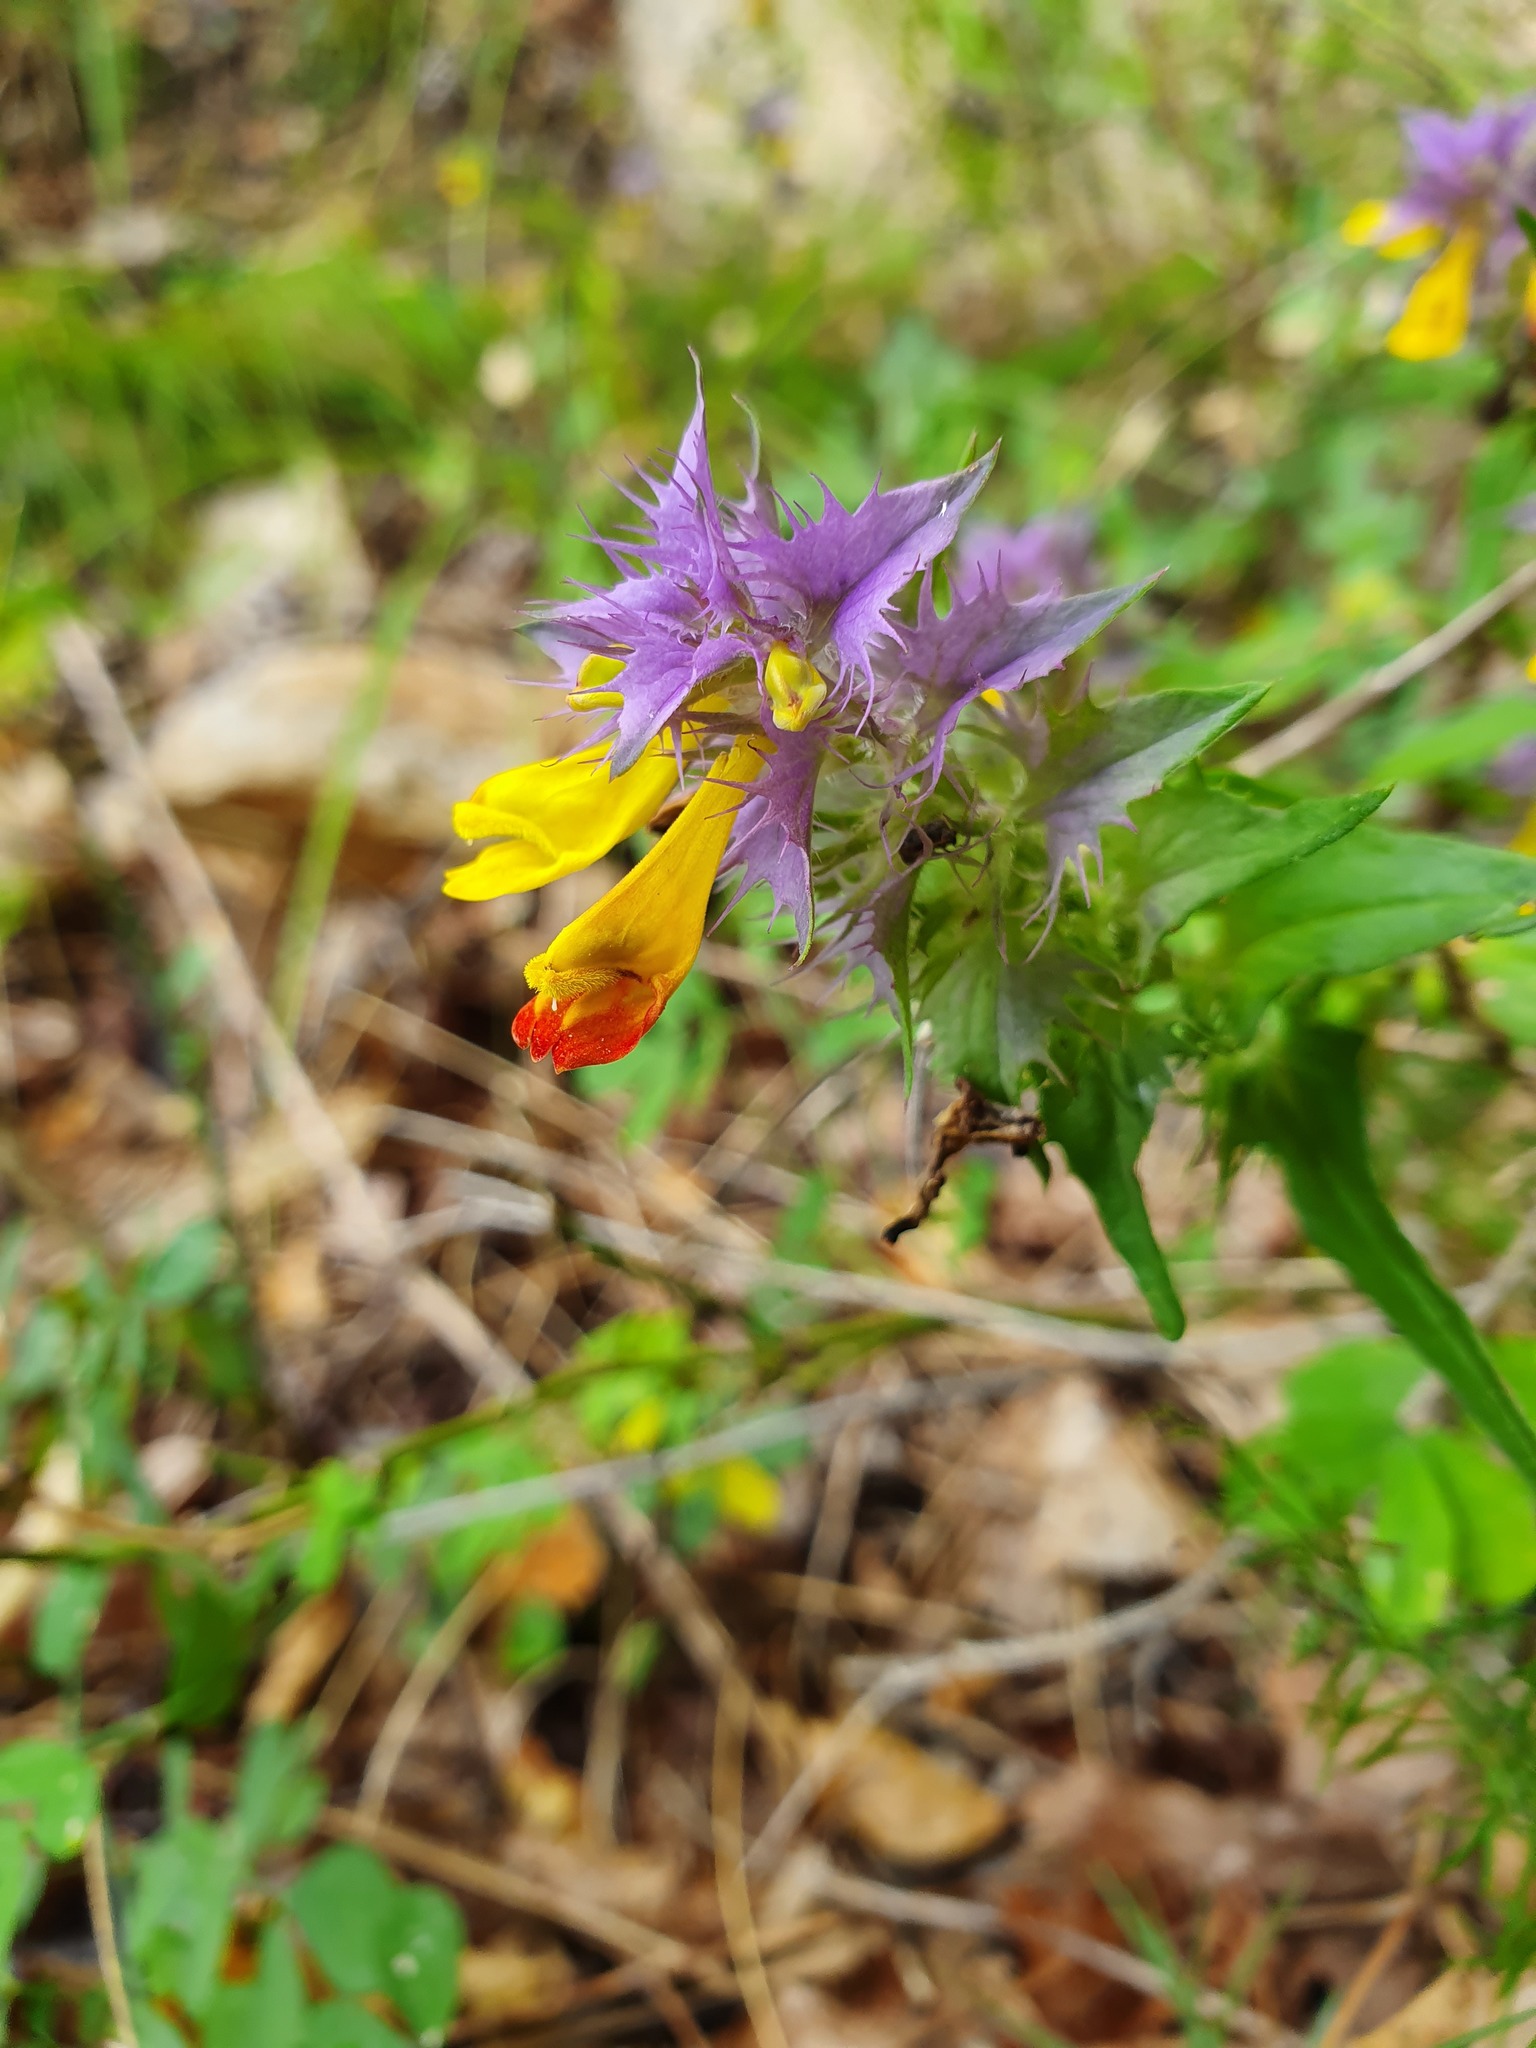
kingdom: Plantae
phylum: Tracheophyta
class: Magnoliopsida
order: Lamiales
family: Orobanchaceae
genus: Melampyrum
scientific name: Melampyrum nemorosum
